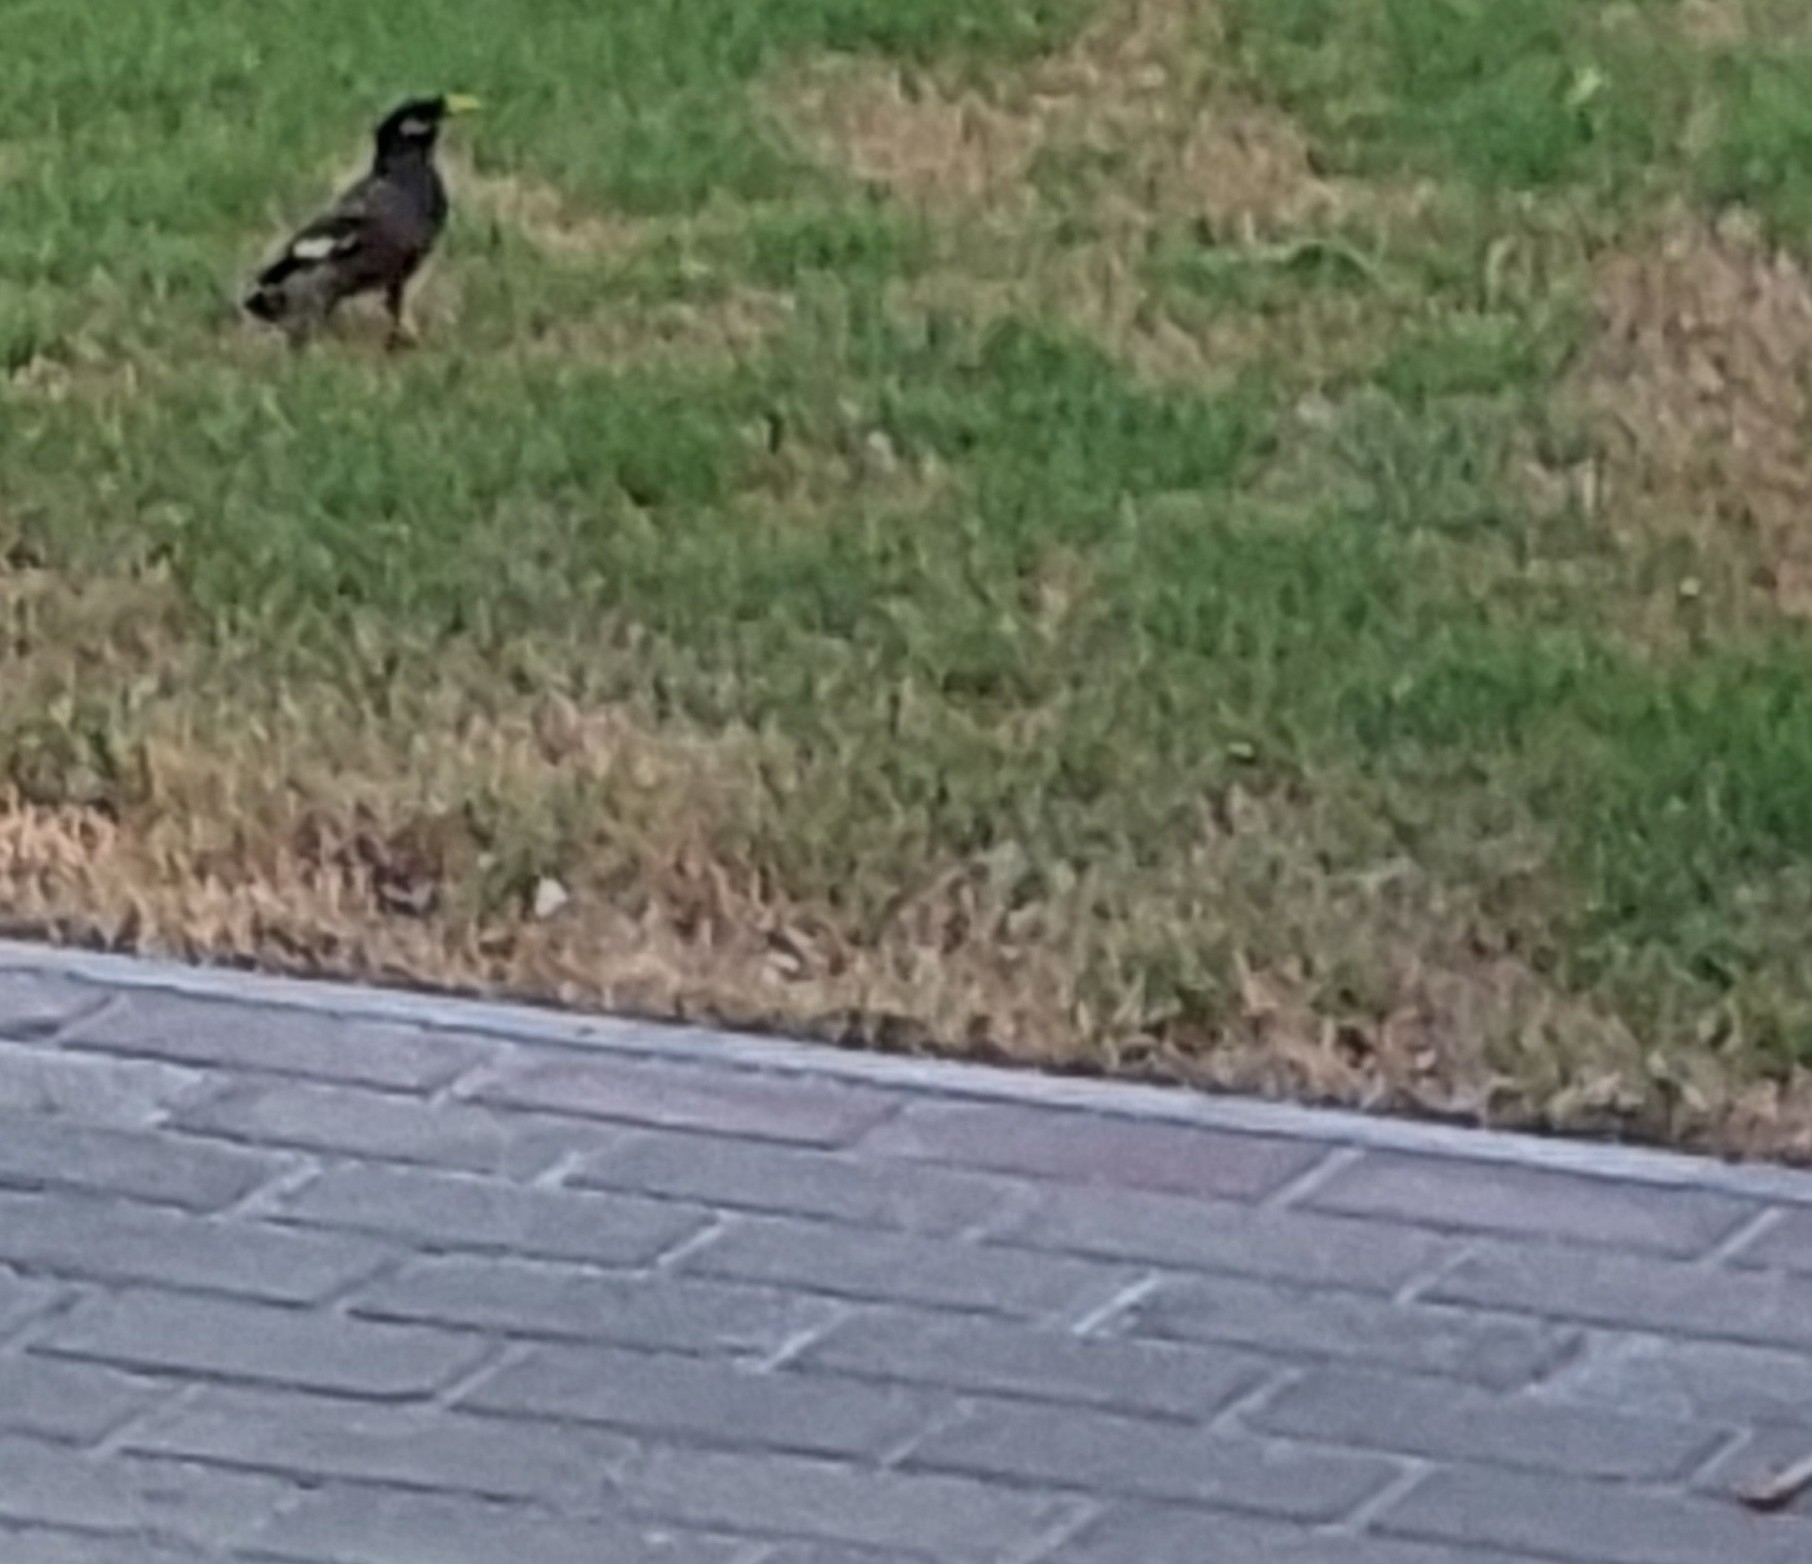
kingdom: Animalia
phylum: Chordata
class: Aves
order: Passeriformes
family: Sturnidae
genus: Acridotheres
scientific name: Acridotheres tristis
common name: Common myna
